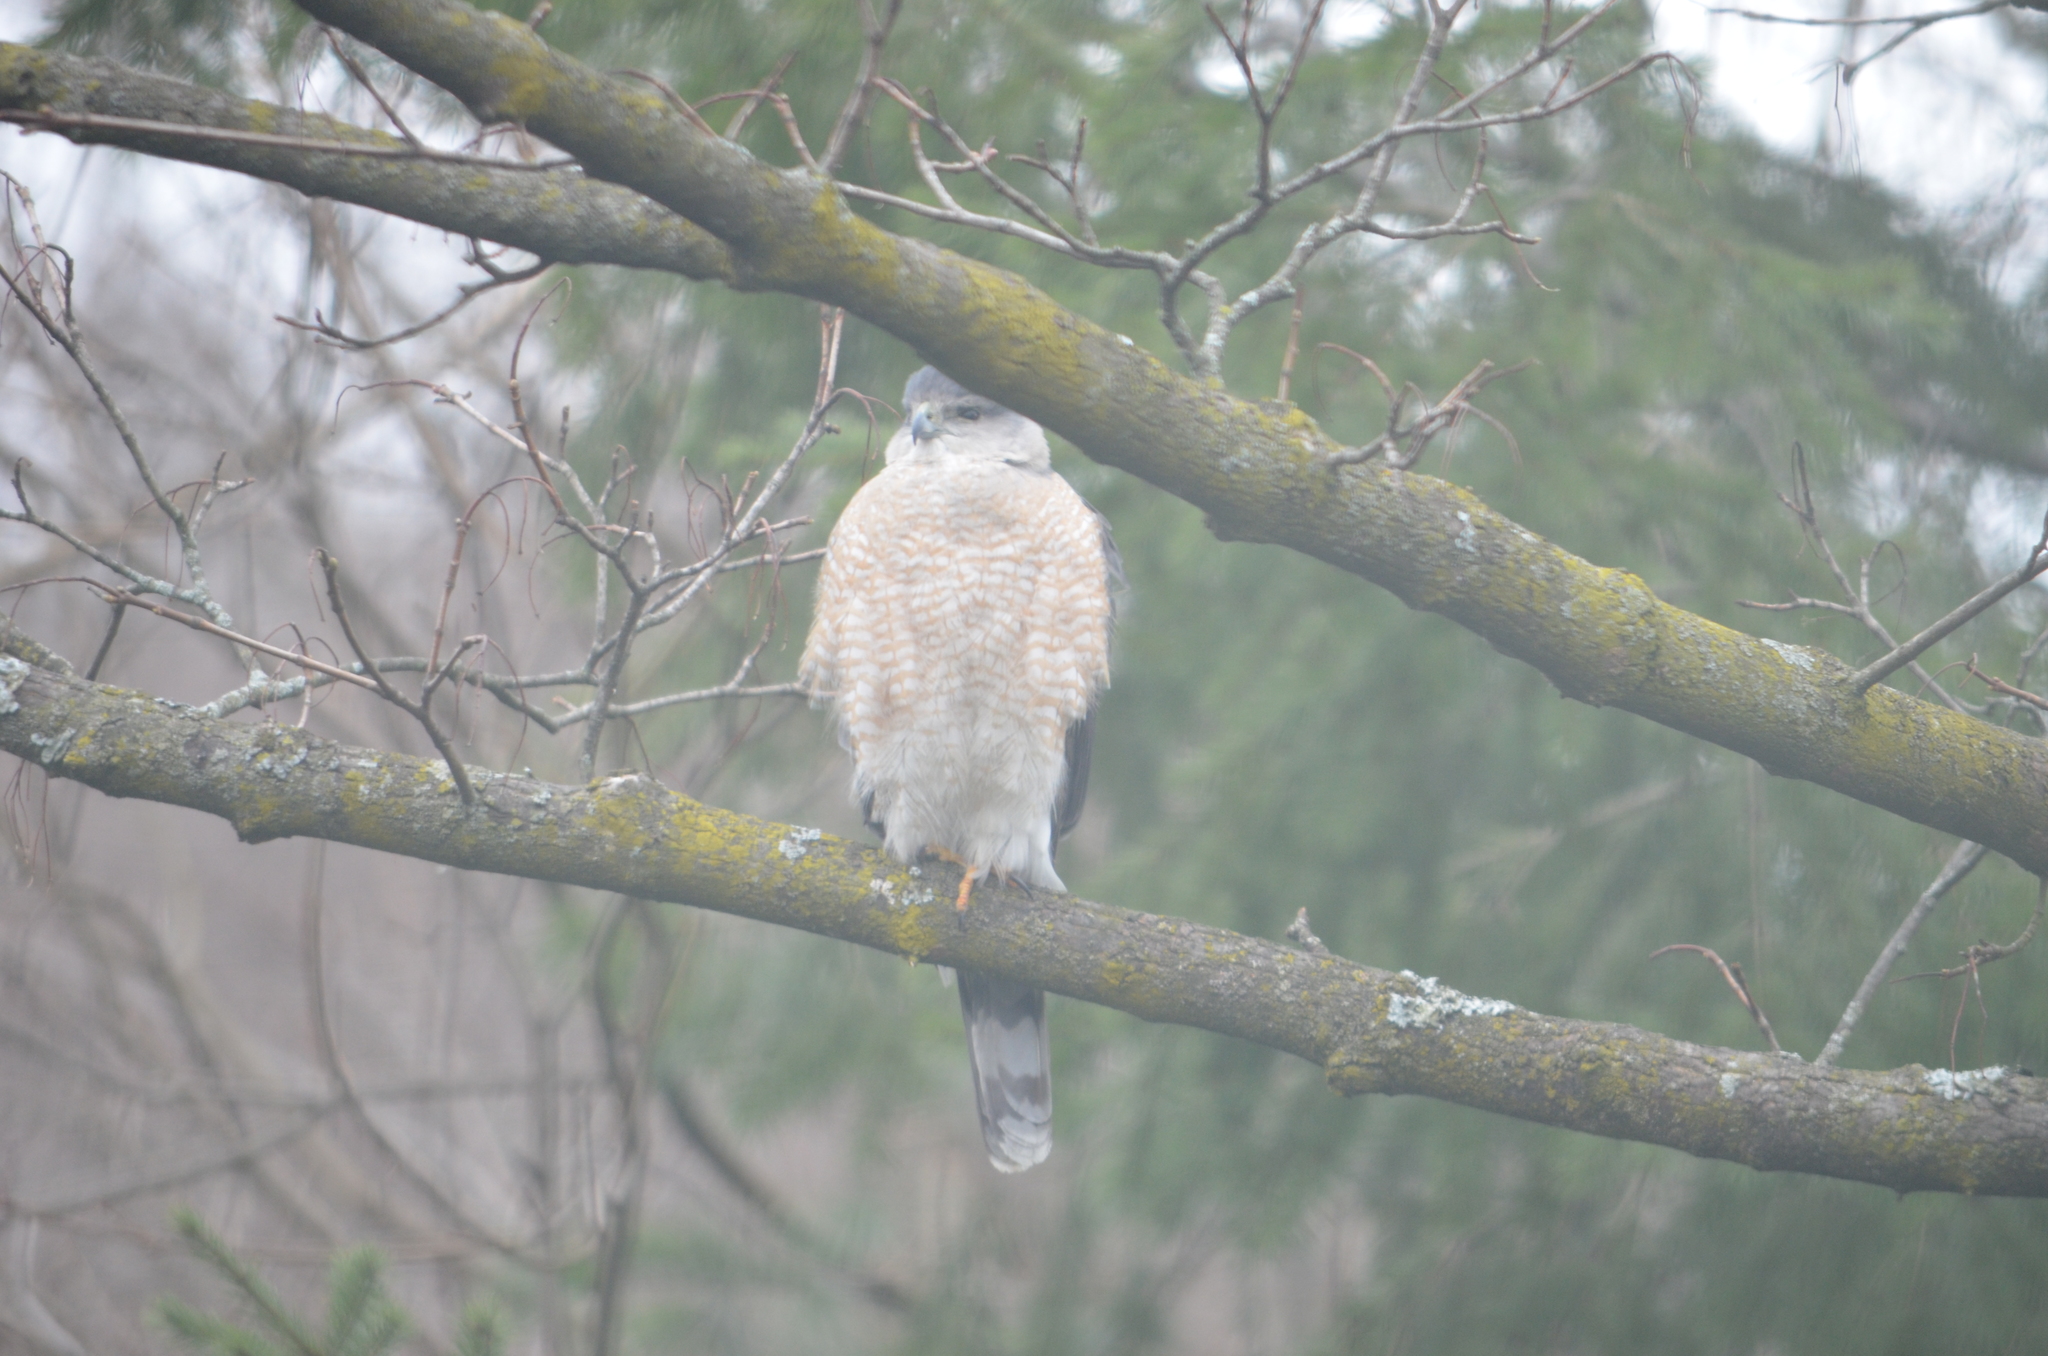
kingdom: Animalia
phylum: Chordata
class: Aves
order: Accipitriformes
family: Accipitridae
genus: Accipiter
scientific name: Accipiter cooperii
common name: Cooper's hawk
